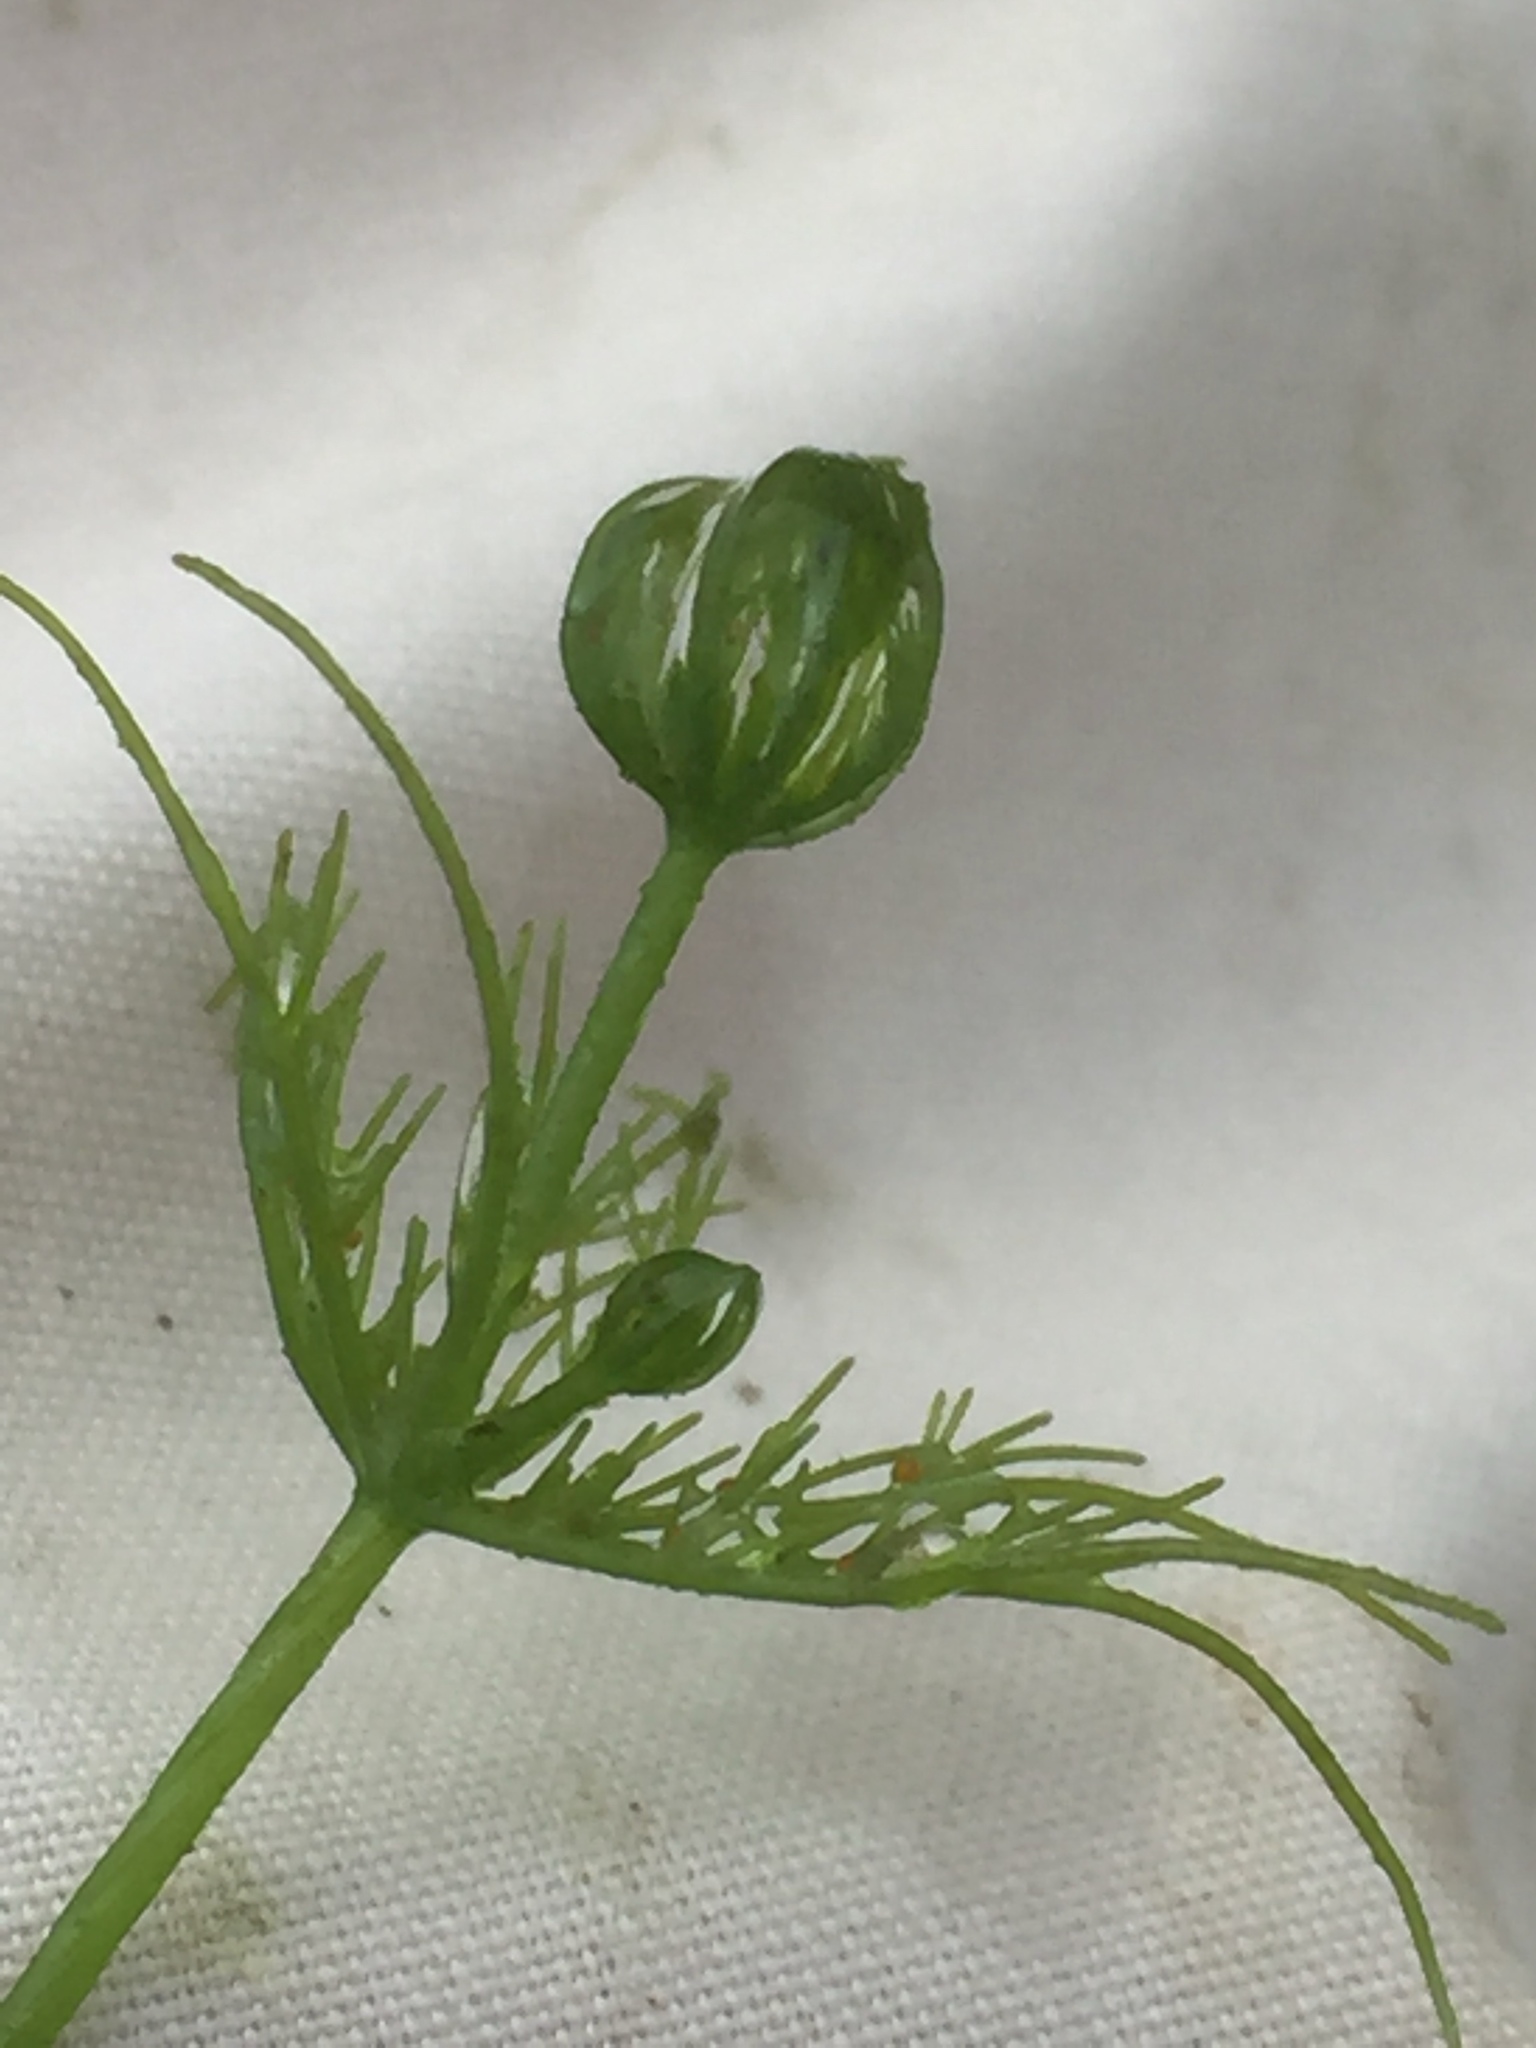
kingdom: Plantae
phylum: Charophyta
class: Charophyceae
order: Charales
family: Characeae
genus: Chara
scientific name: Chara vulgaris
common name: Common stonewort
